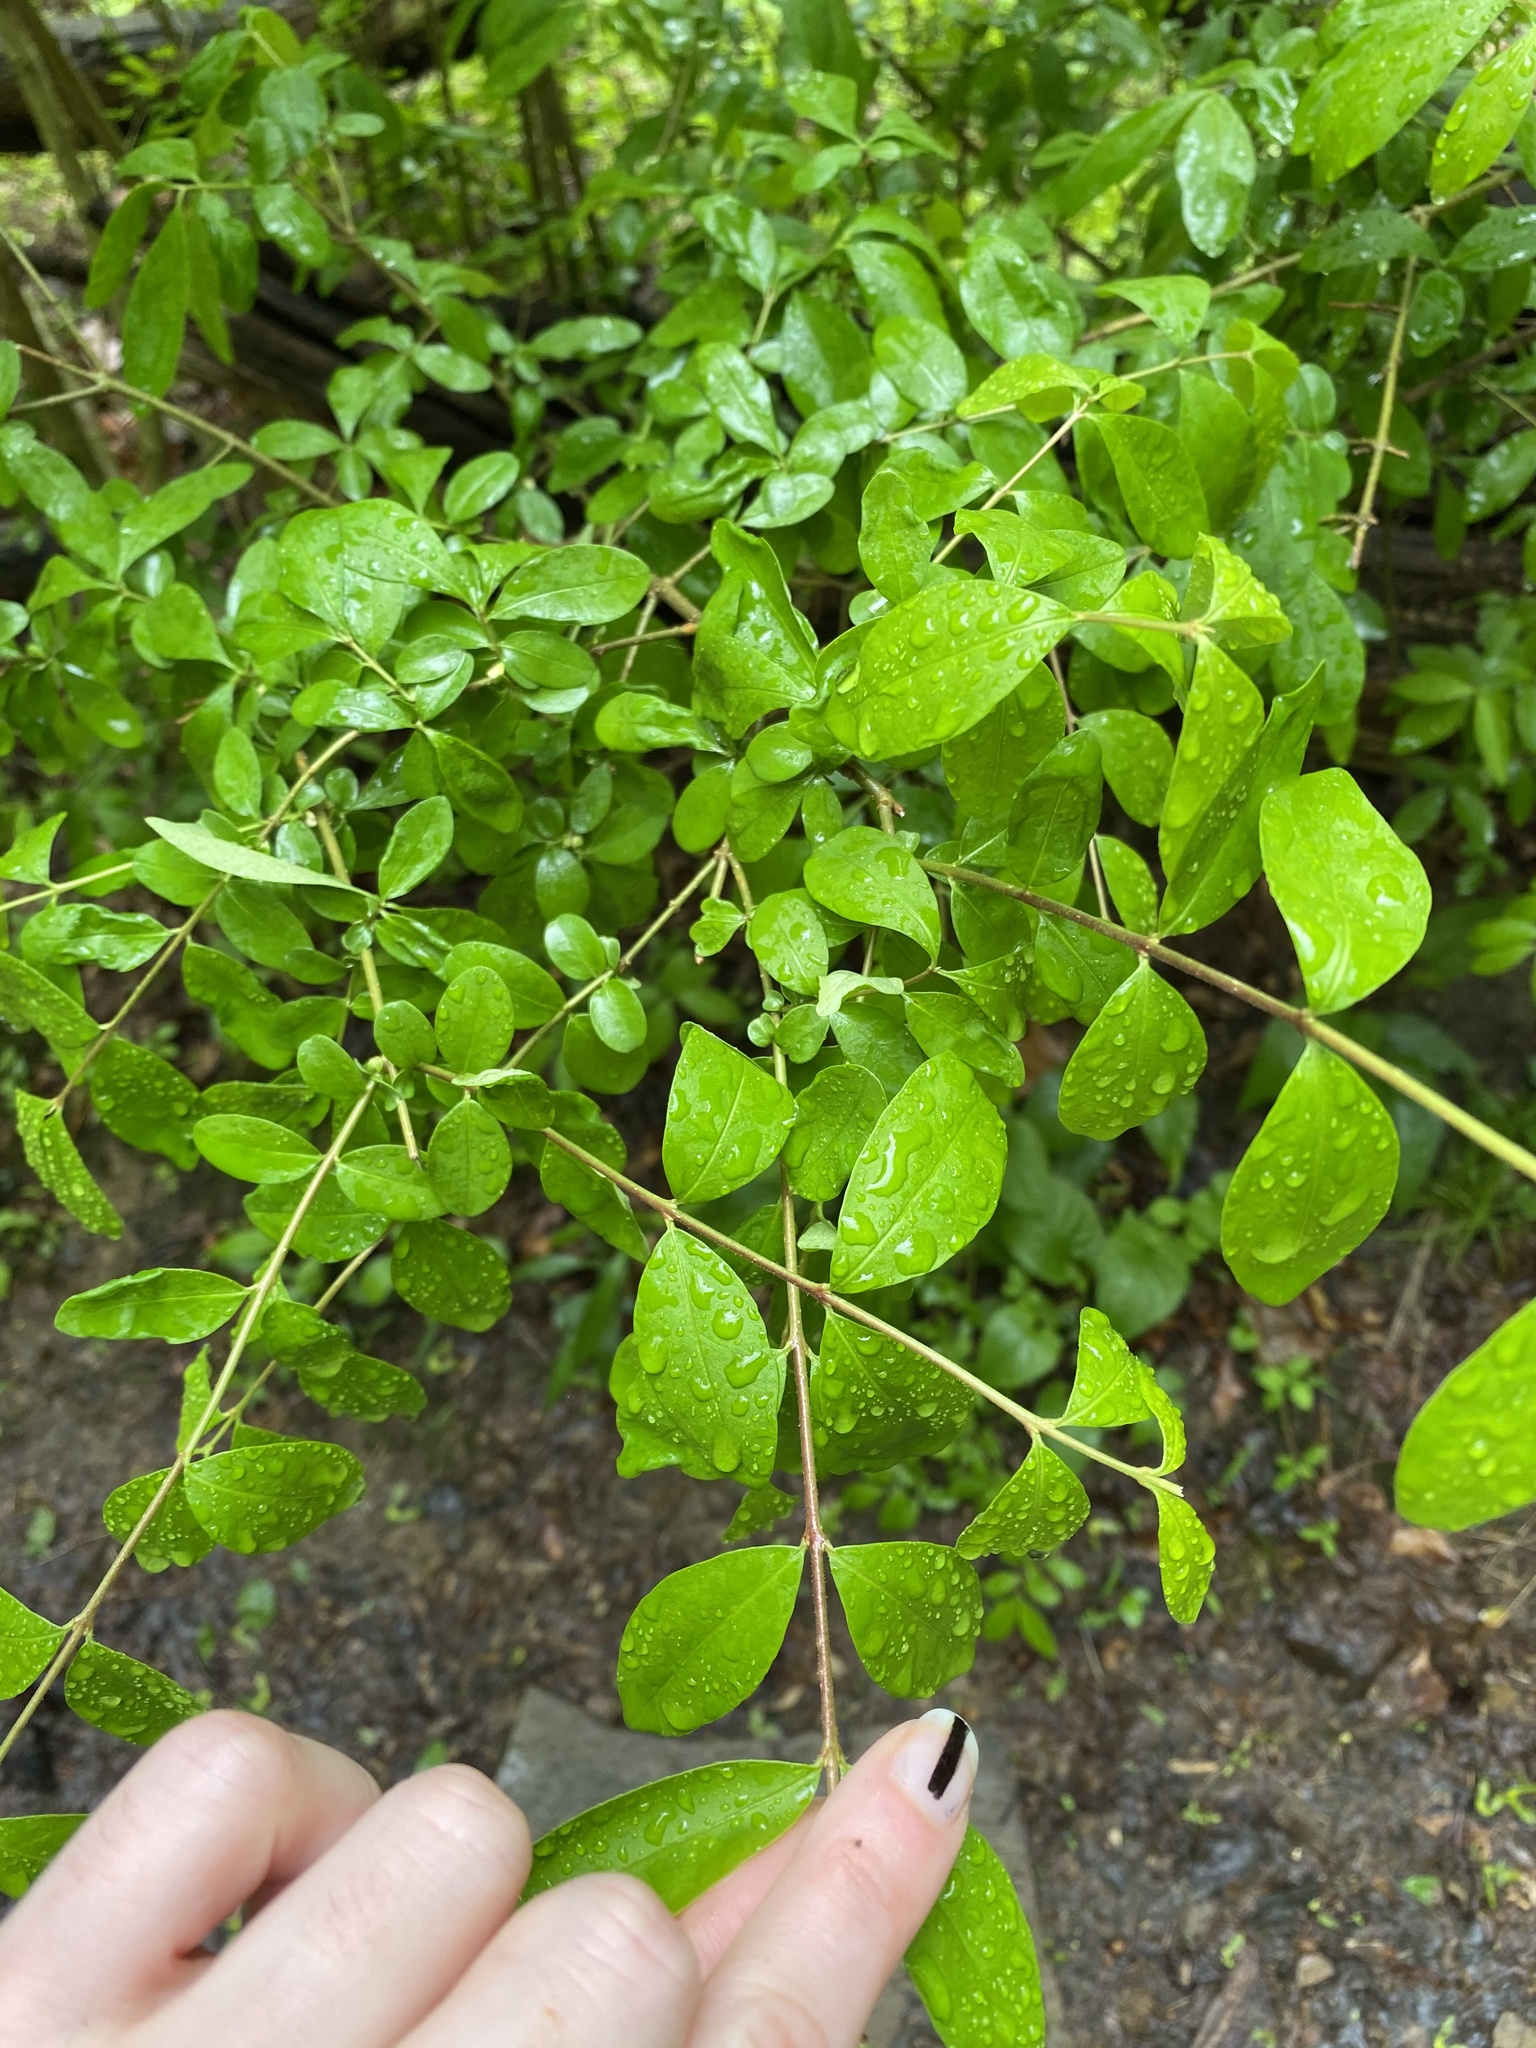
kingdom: Plantae
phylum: Tracheophyta
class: Magnoliopsida
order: Lamiales
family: Oleaceae
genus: Ligustrum
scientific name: Ligustrum obtusifolium
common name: Border privet
